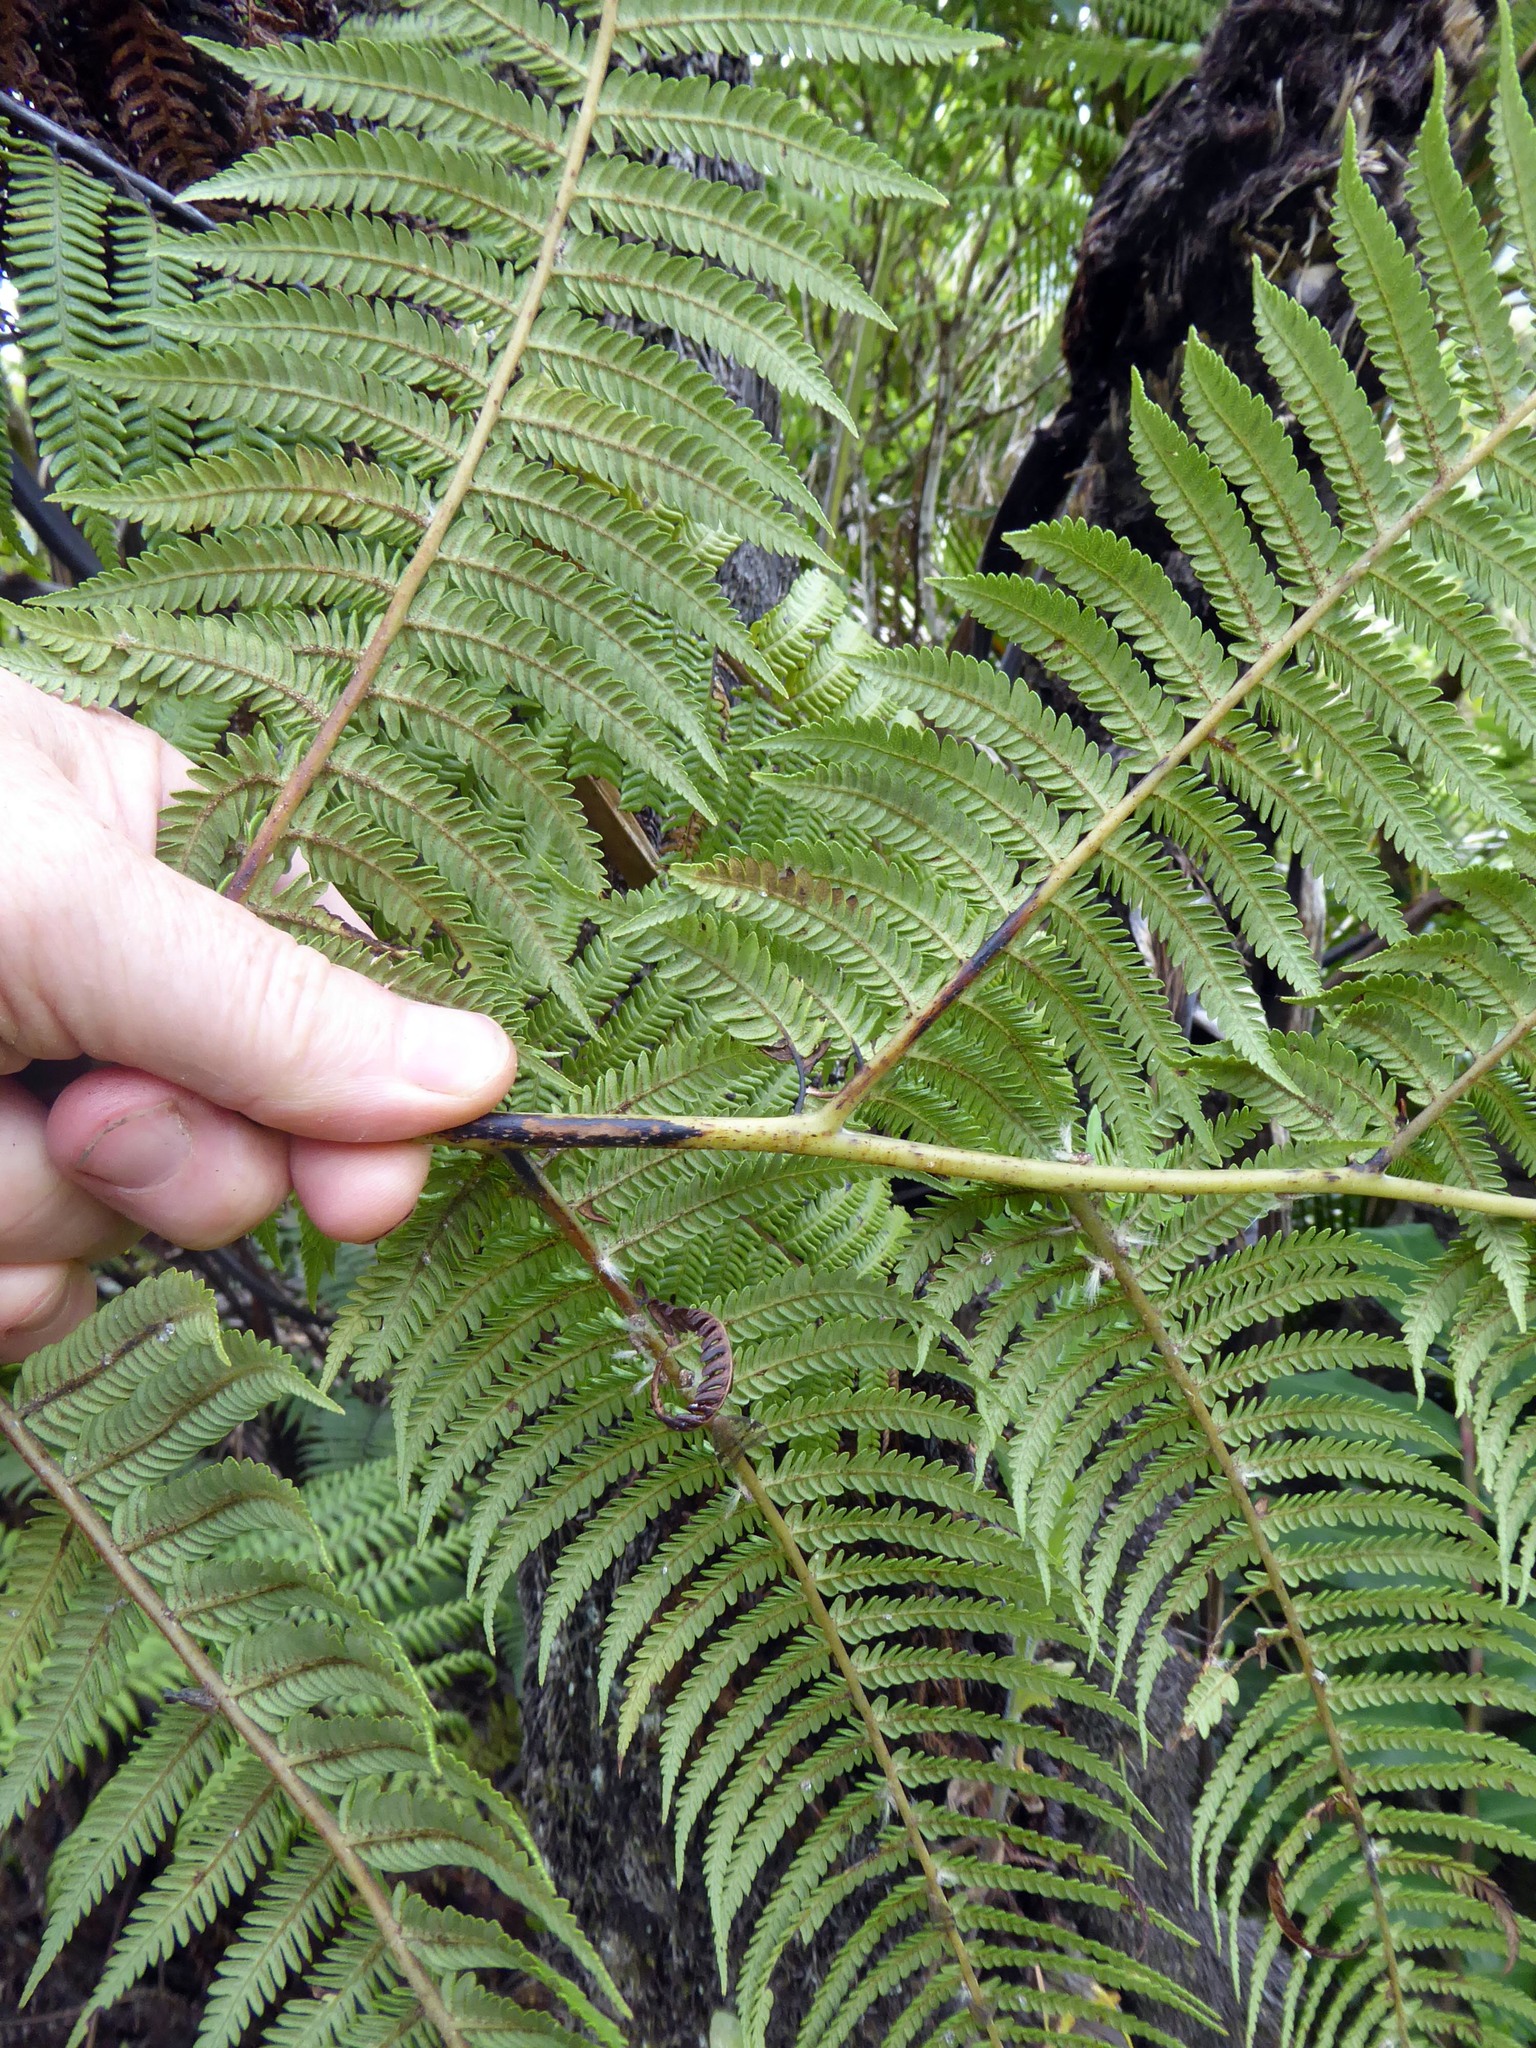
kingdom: Plantae
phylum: Tracheophyta
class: Polypodiopsida
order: Cyatheales
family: Cyatheaceae
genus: Sphaeropteris
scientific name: Sphaeropteris medullaris
